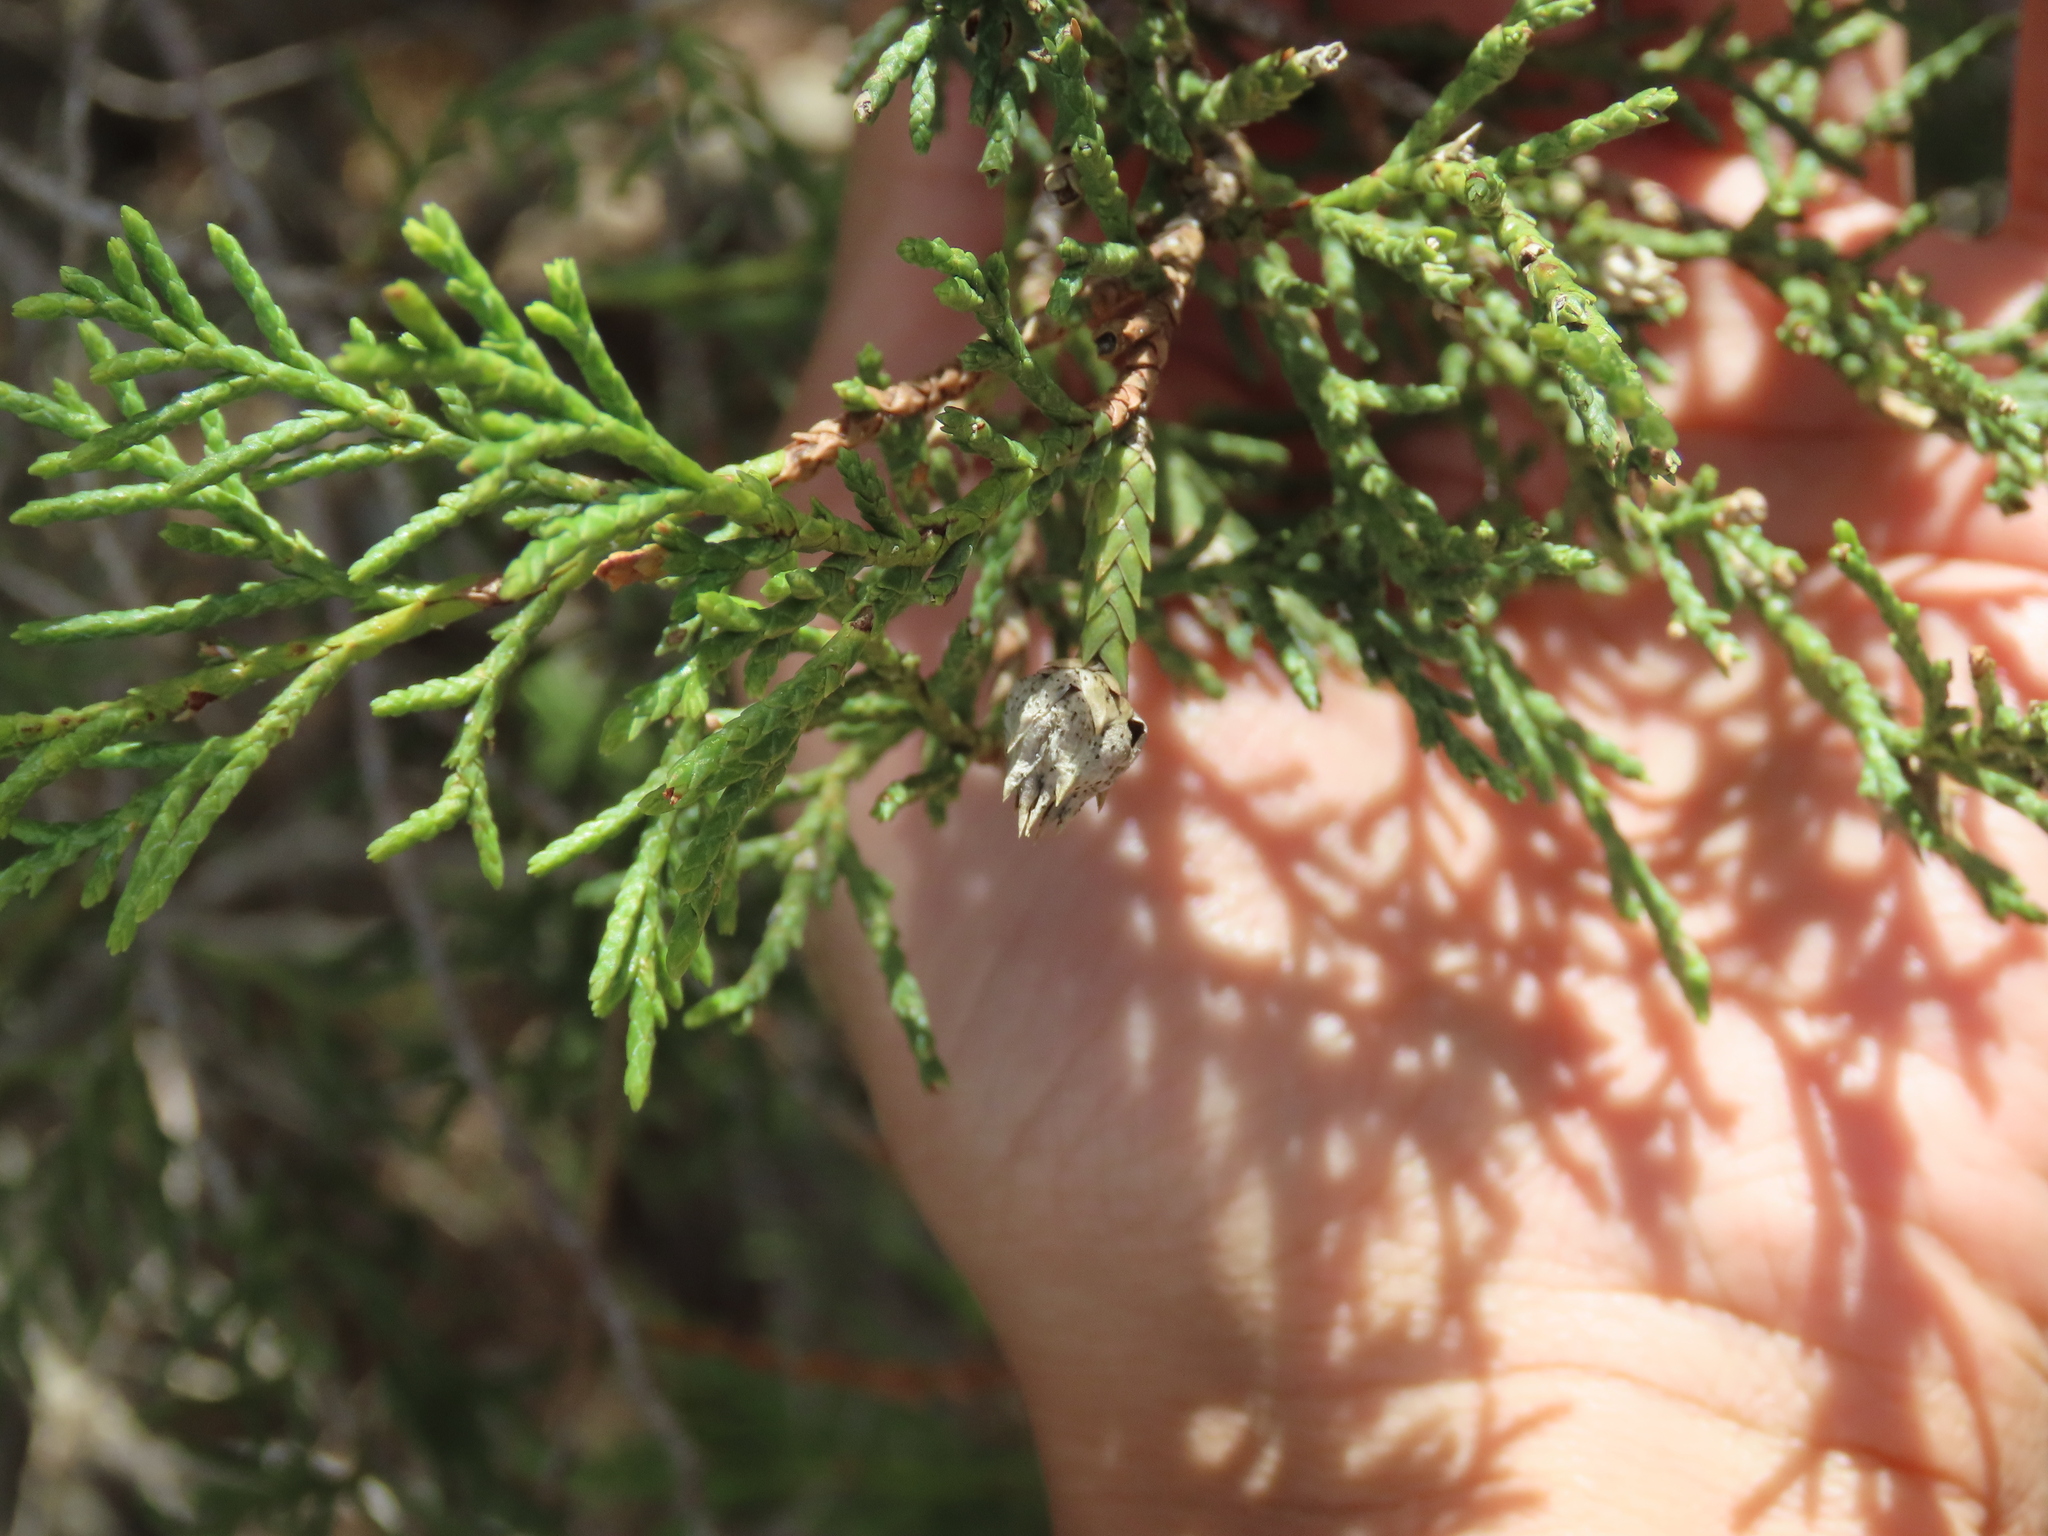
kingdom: Animalia
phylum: Arthropoda
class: Insecta
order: Diptera
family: Cecidomyiidae
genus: Etsuhoa
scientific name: Etsuhoa thuriferae
